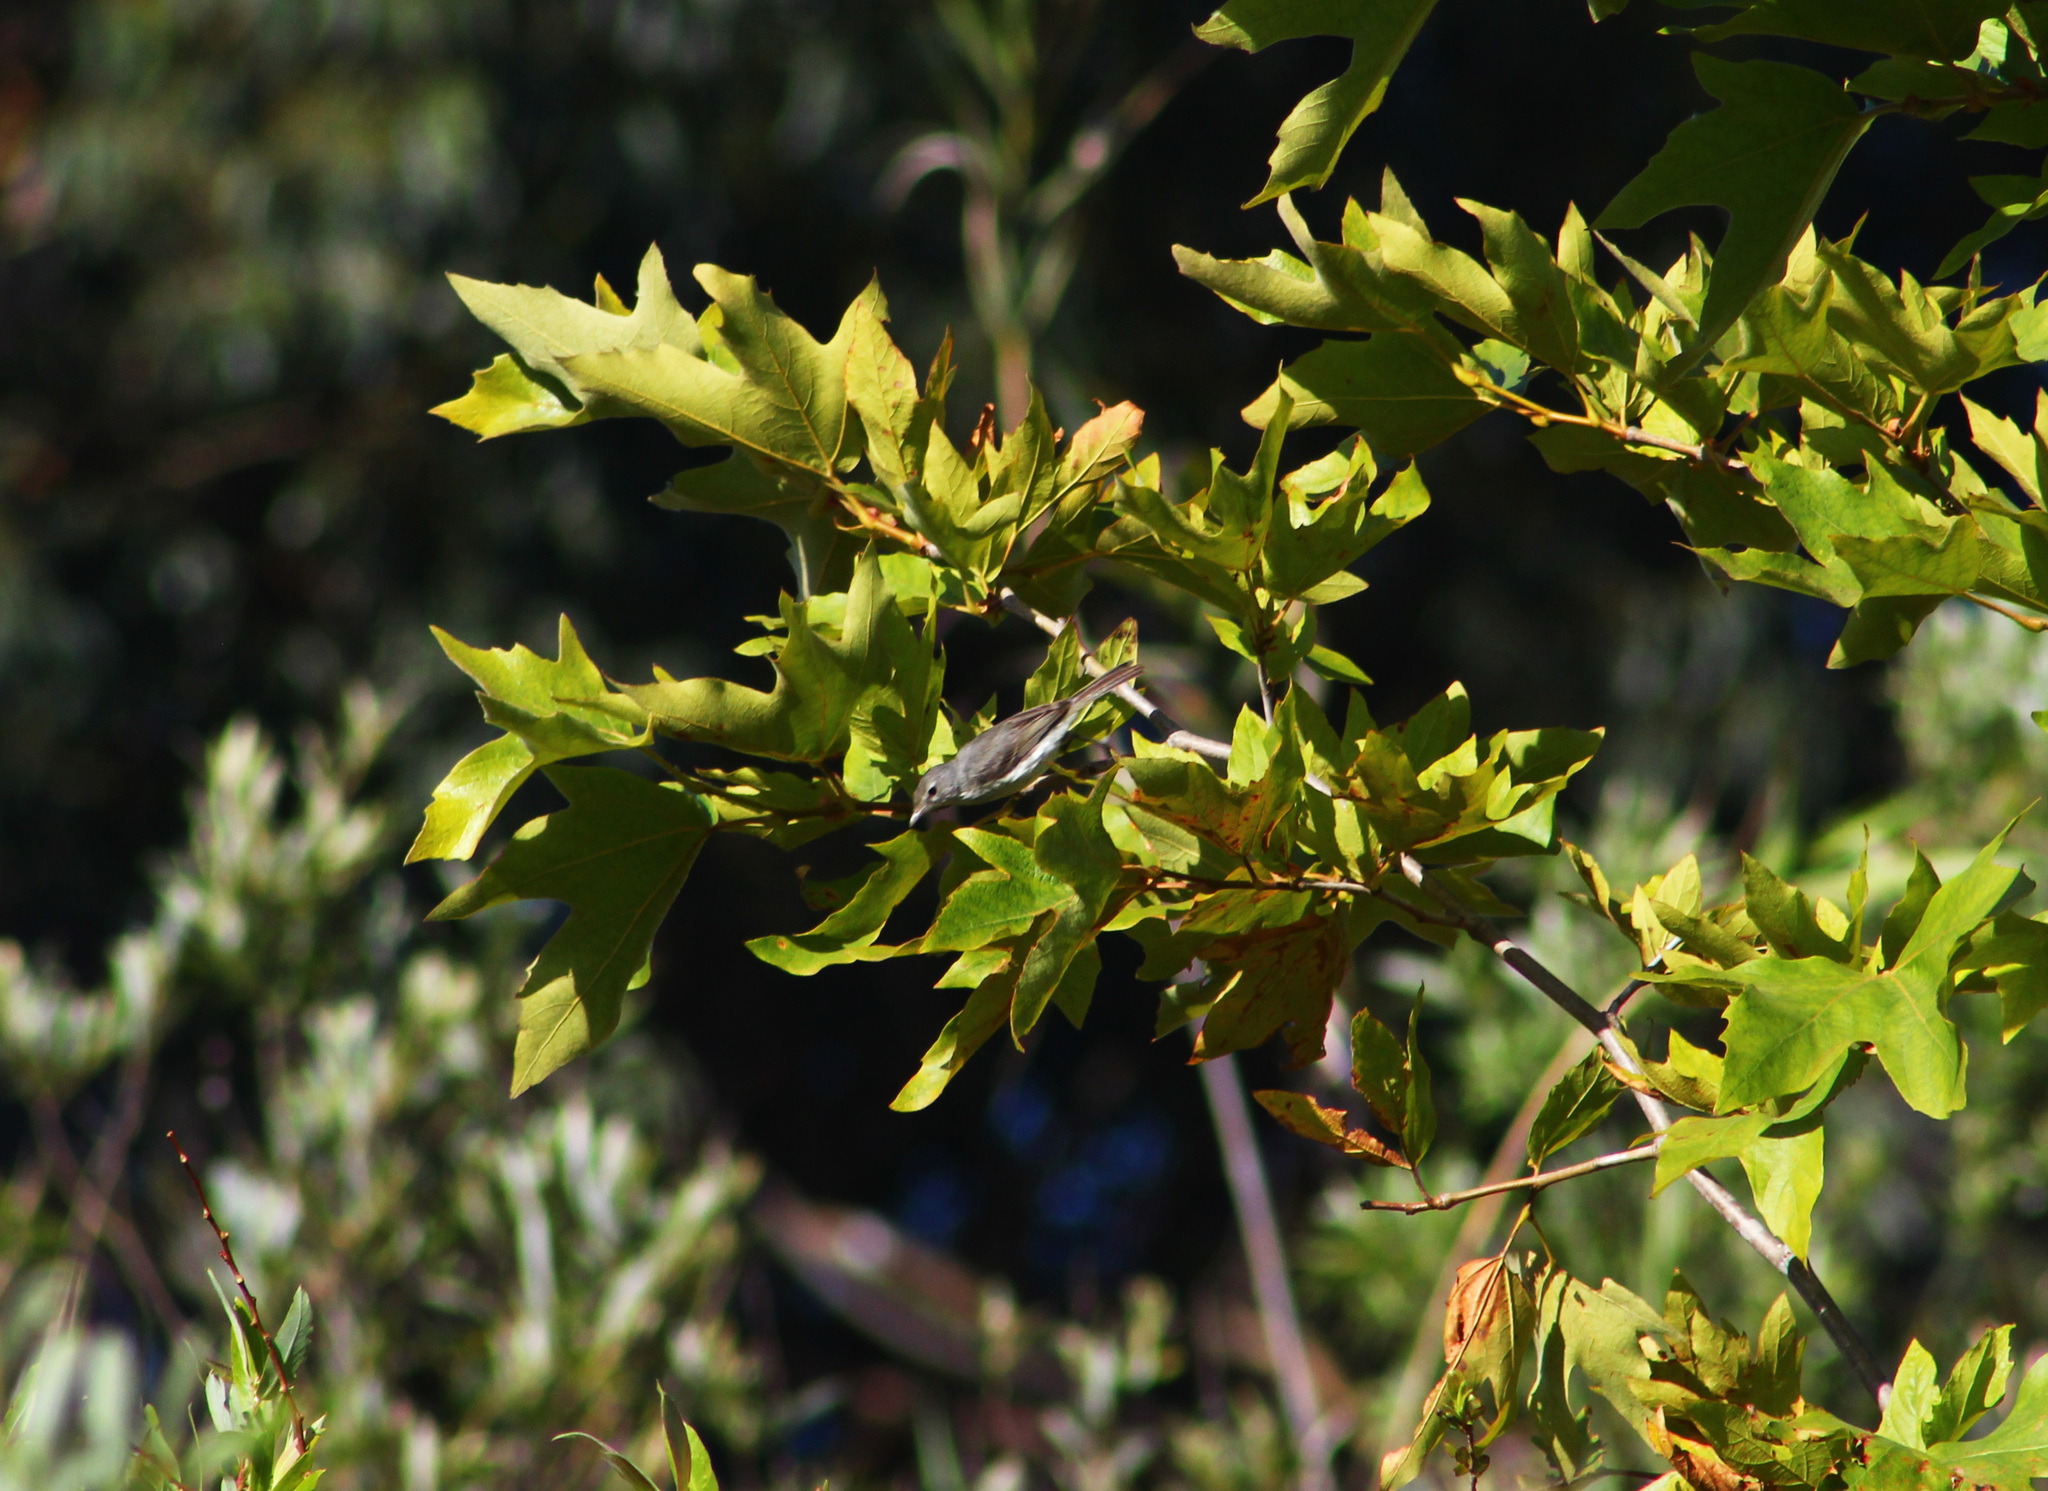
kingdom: Animalia
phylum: Chordata
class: Aves
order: Passeriformes
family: Vireonidae
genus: Vireo
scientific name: Vireo bellii
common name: Bell's vireo
